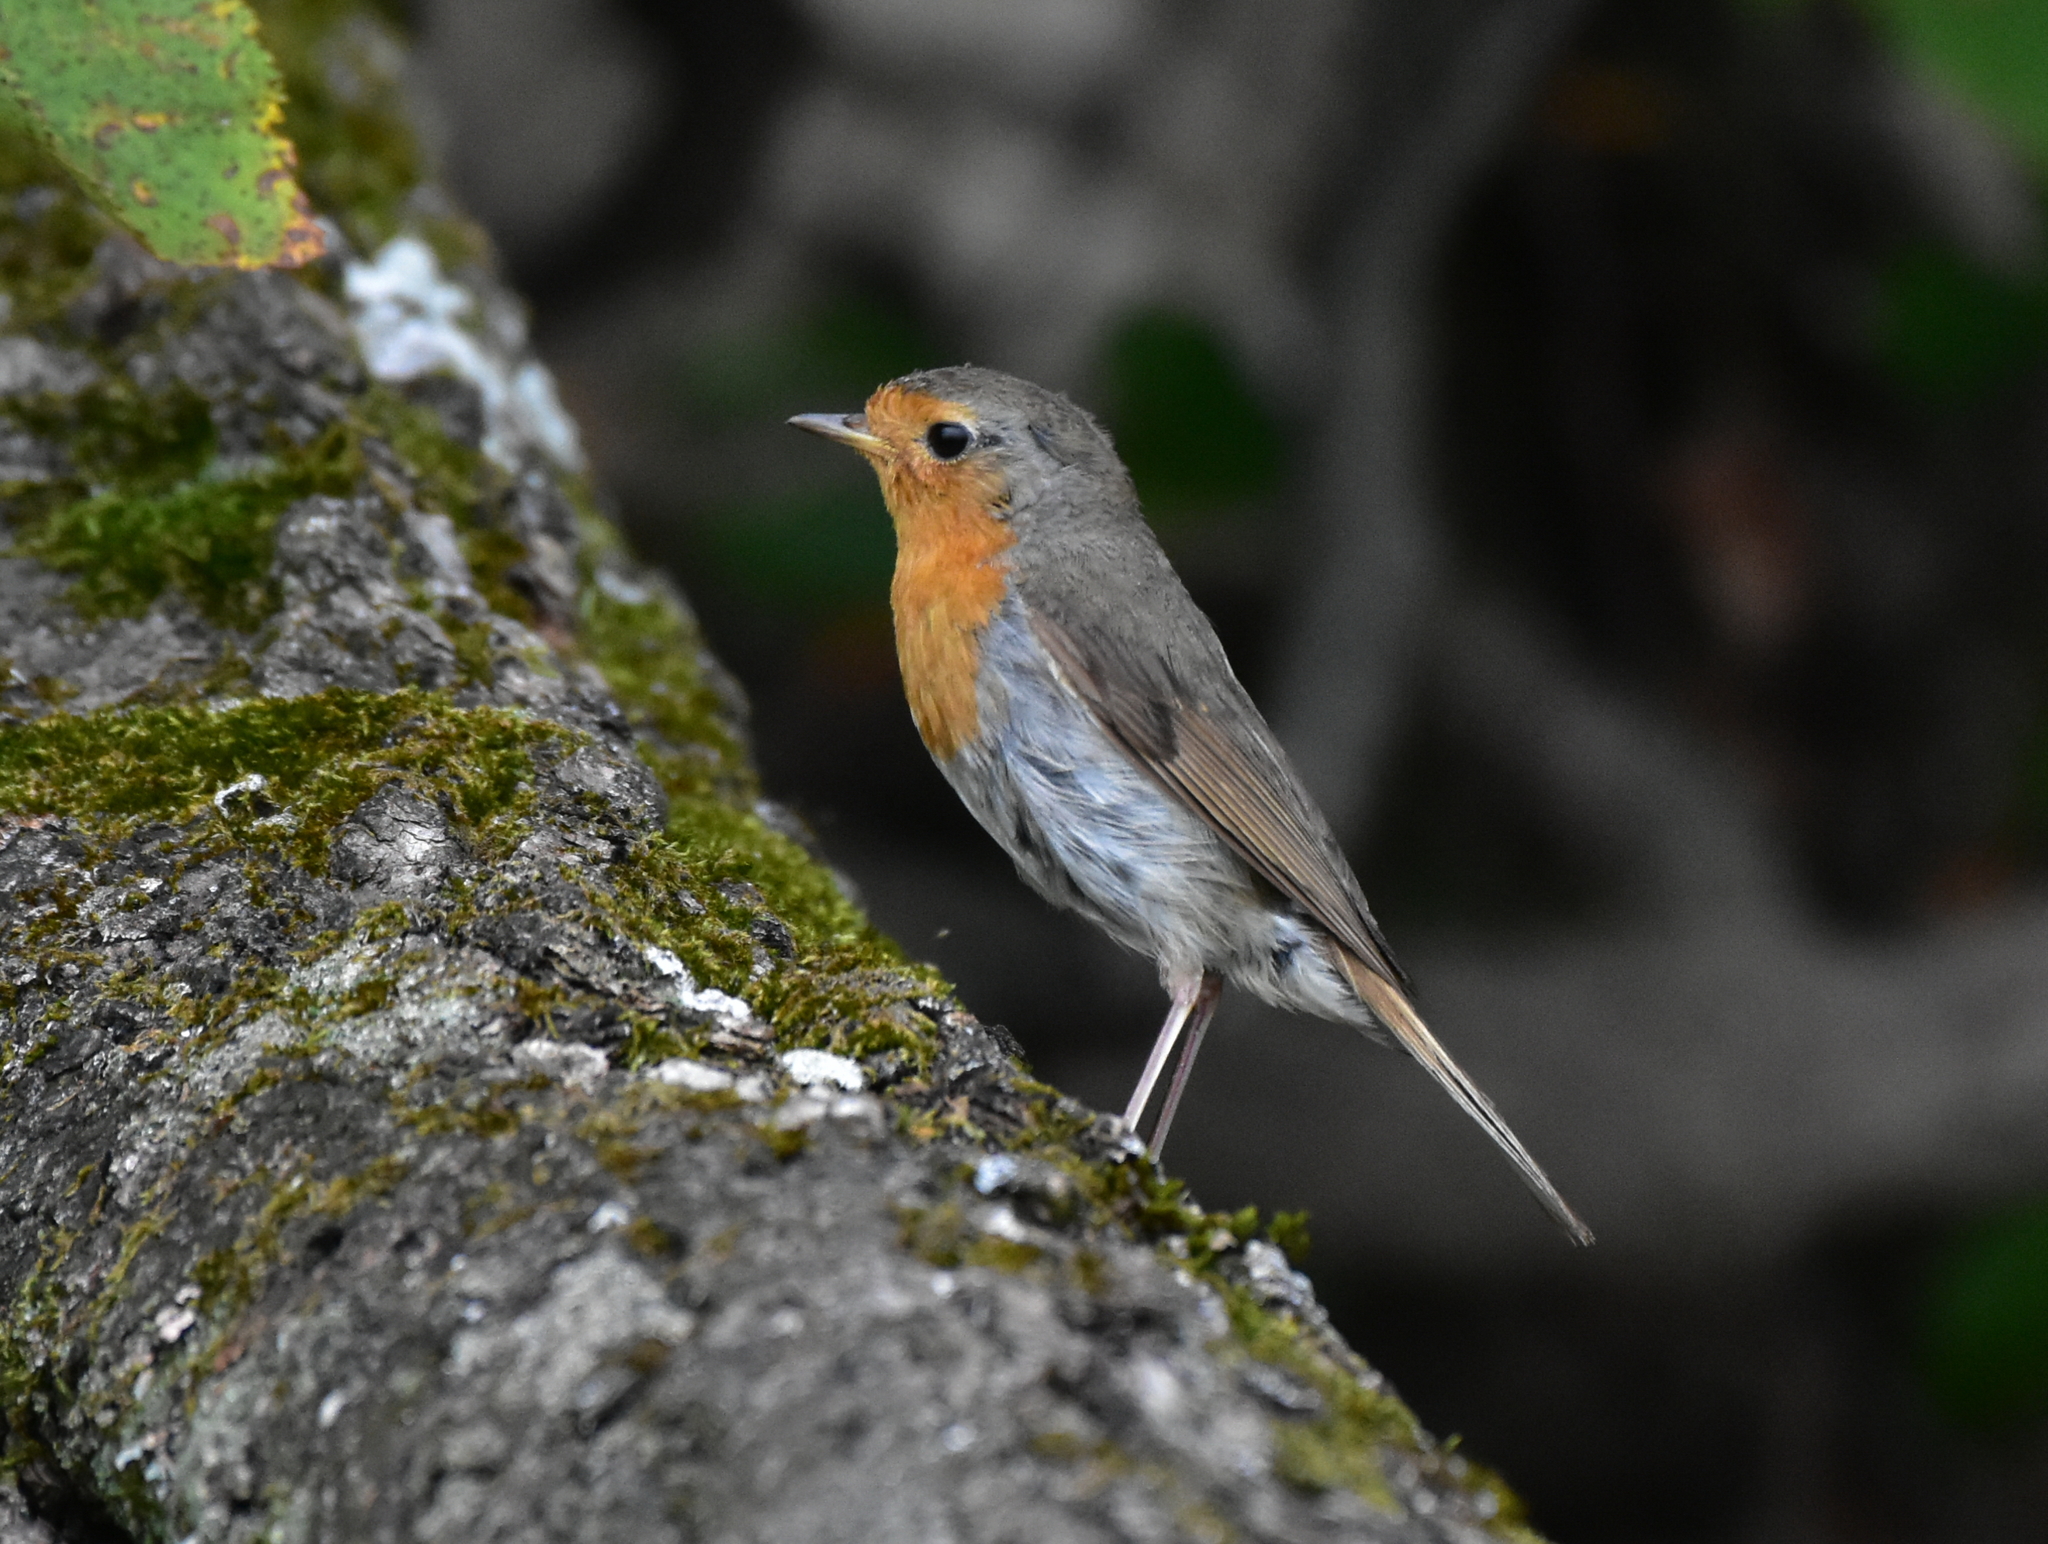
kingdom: Animalia
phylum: Chordata
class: Aves
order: Passeriformes
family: Muscicapidae
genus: Erithacus
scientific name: Erithacus rubecula
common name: European robin
